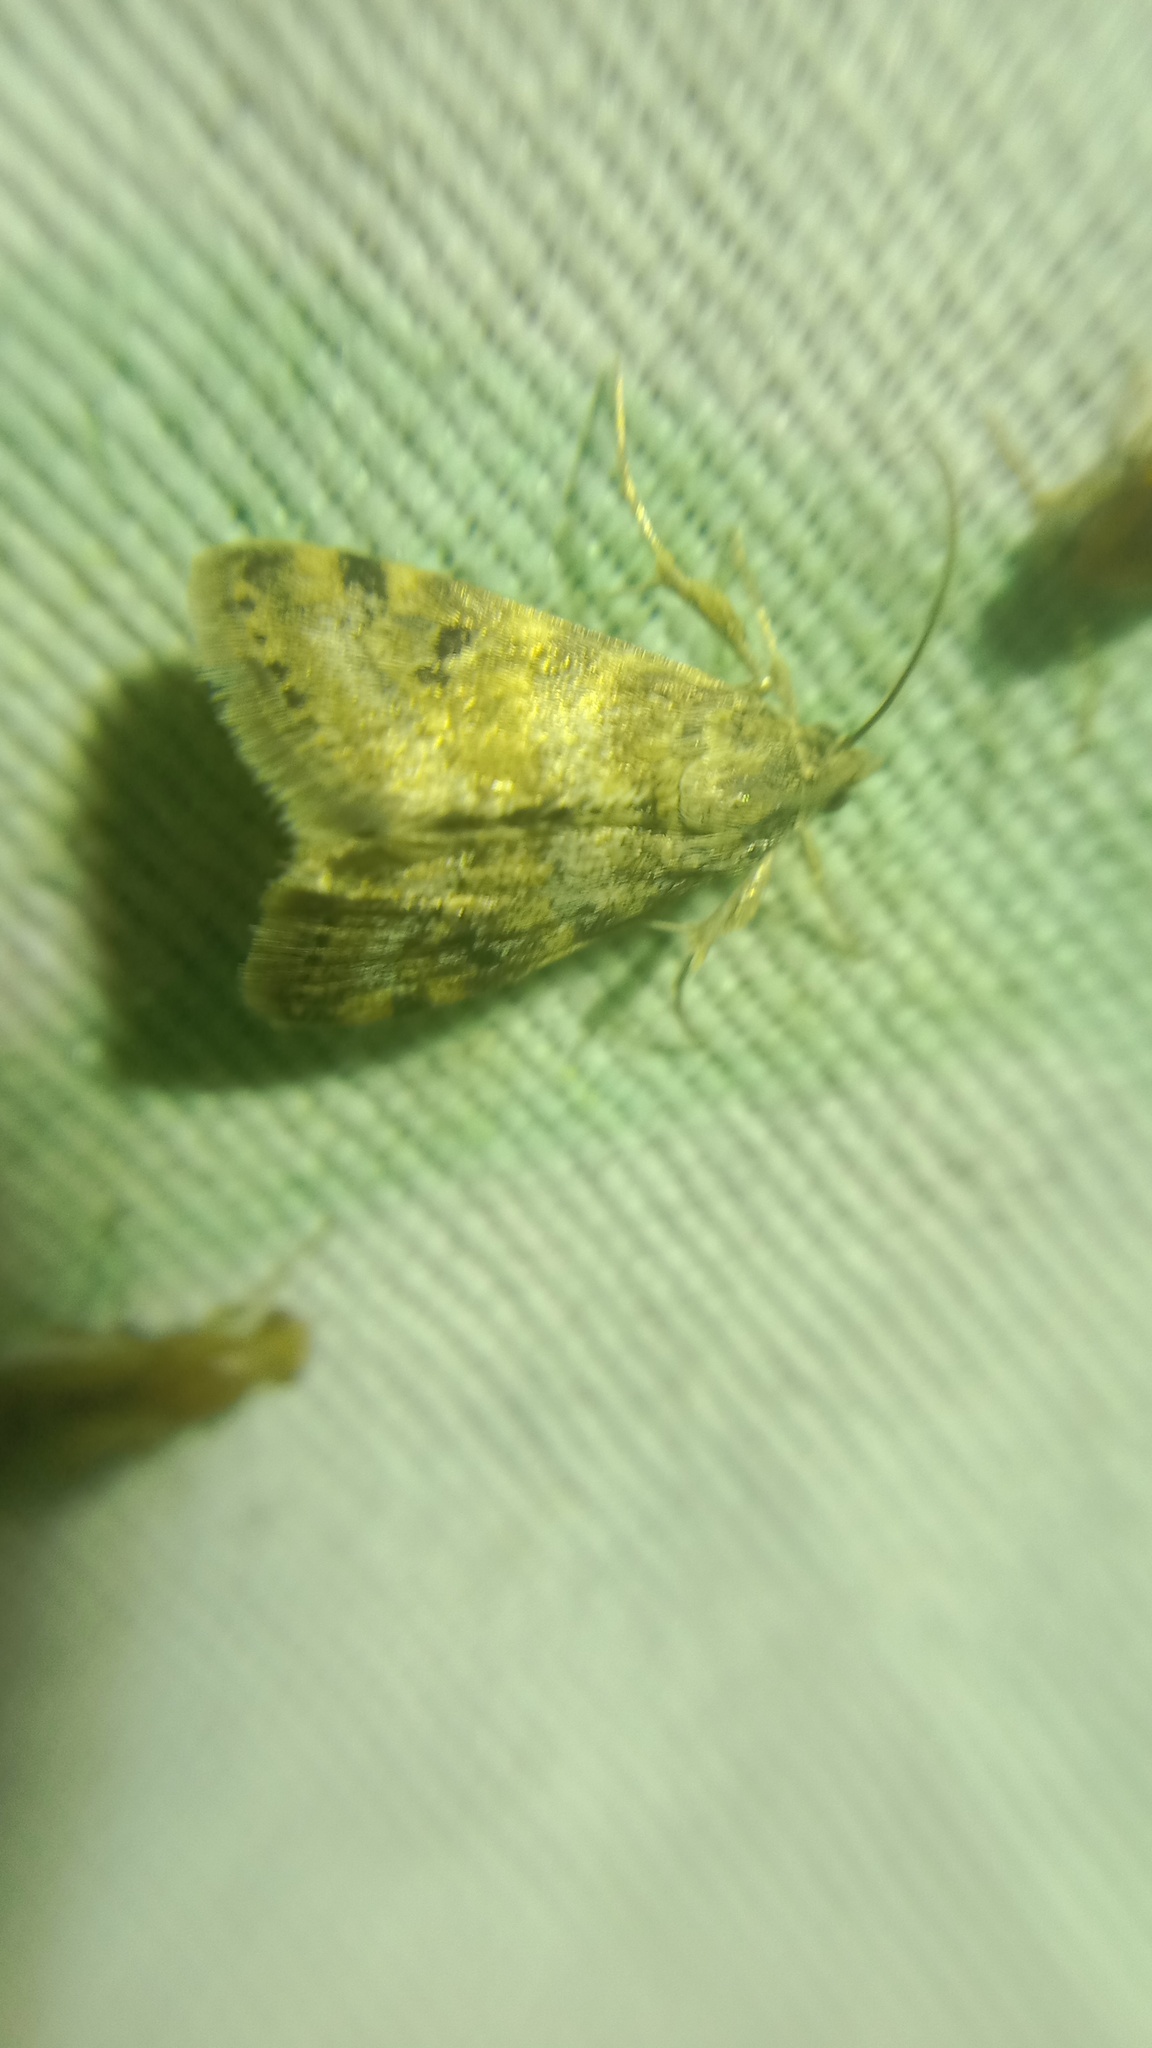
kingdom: Animalia
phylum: Arthropoda
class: Insecta
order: Lepidoptera
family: Crambidae
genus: Noctuelia
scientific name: Noctuelia Aporodes floralis
